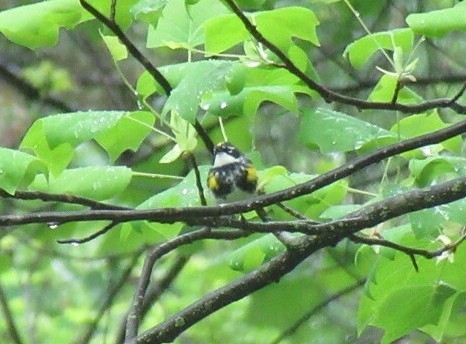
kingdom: Animalia
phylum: Chordata
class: Aves
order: Passeriformes
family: Parulidae
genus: Setophaga
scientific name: Setophaga coronata
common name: Myrtle warbler
